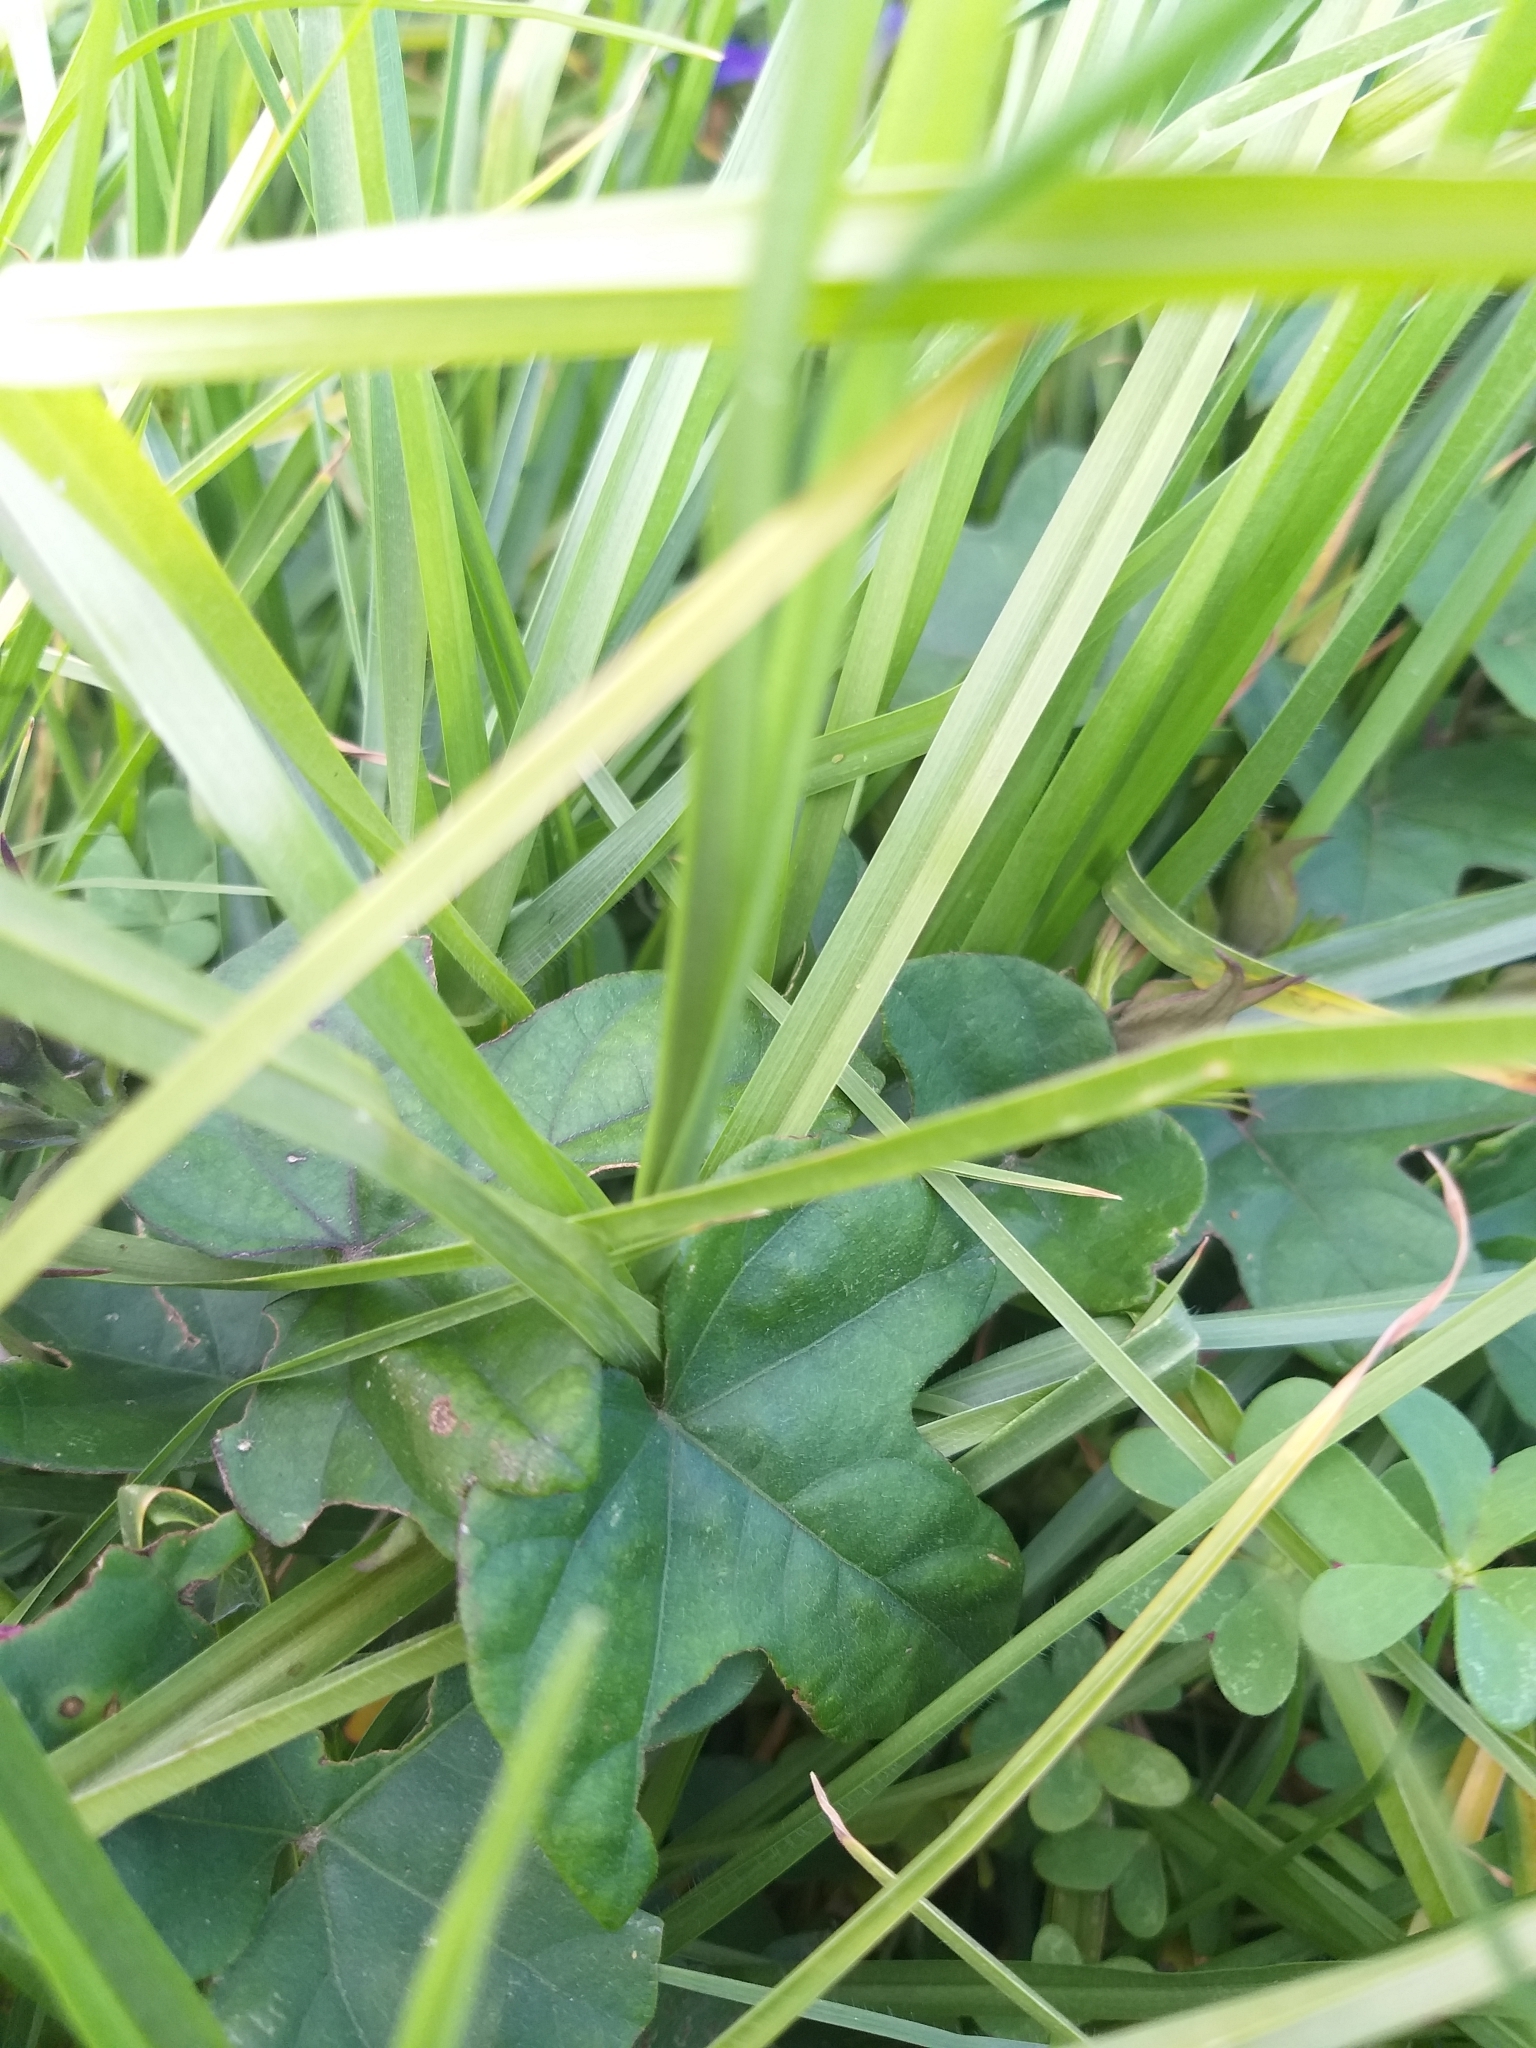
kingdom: Plantae
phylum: Tracheophyta
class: Magnoliopsida
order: Solanales
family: Convolvulaceae
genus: Ipomoea
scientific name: Ipomoea indica
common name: Blue dawnflower
